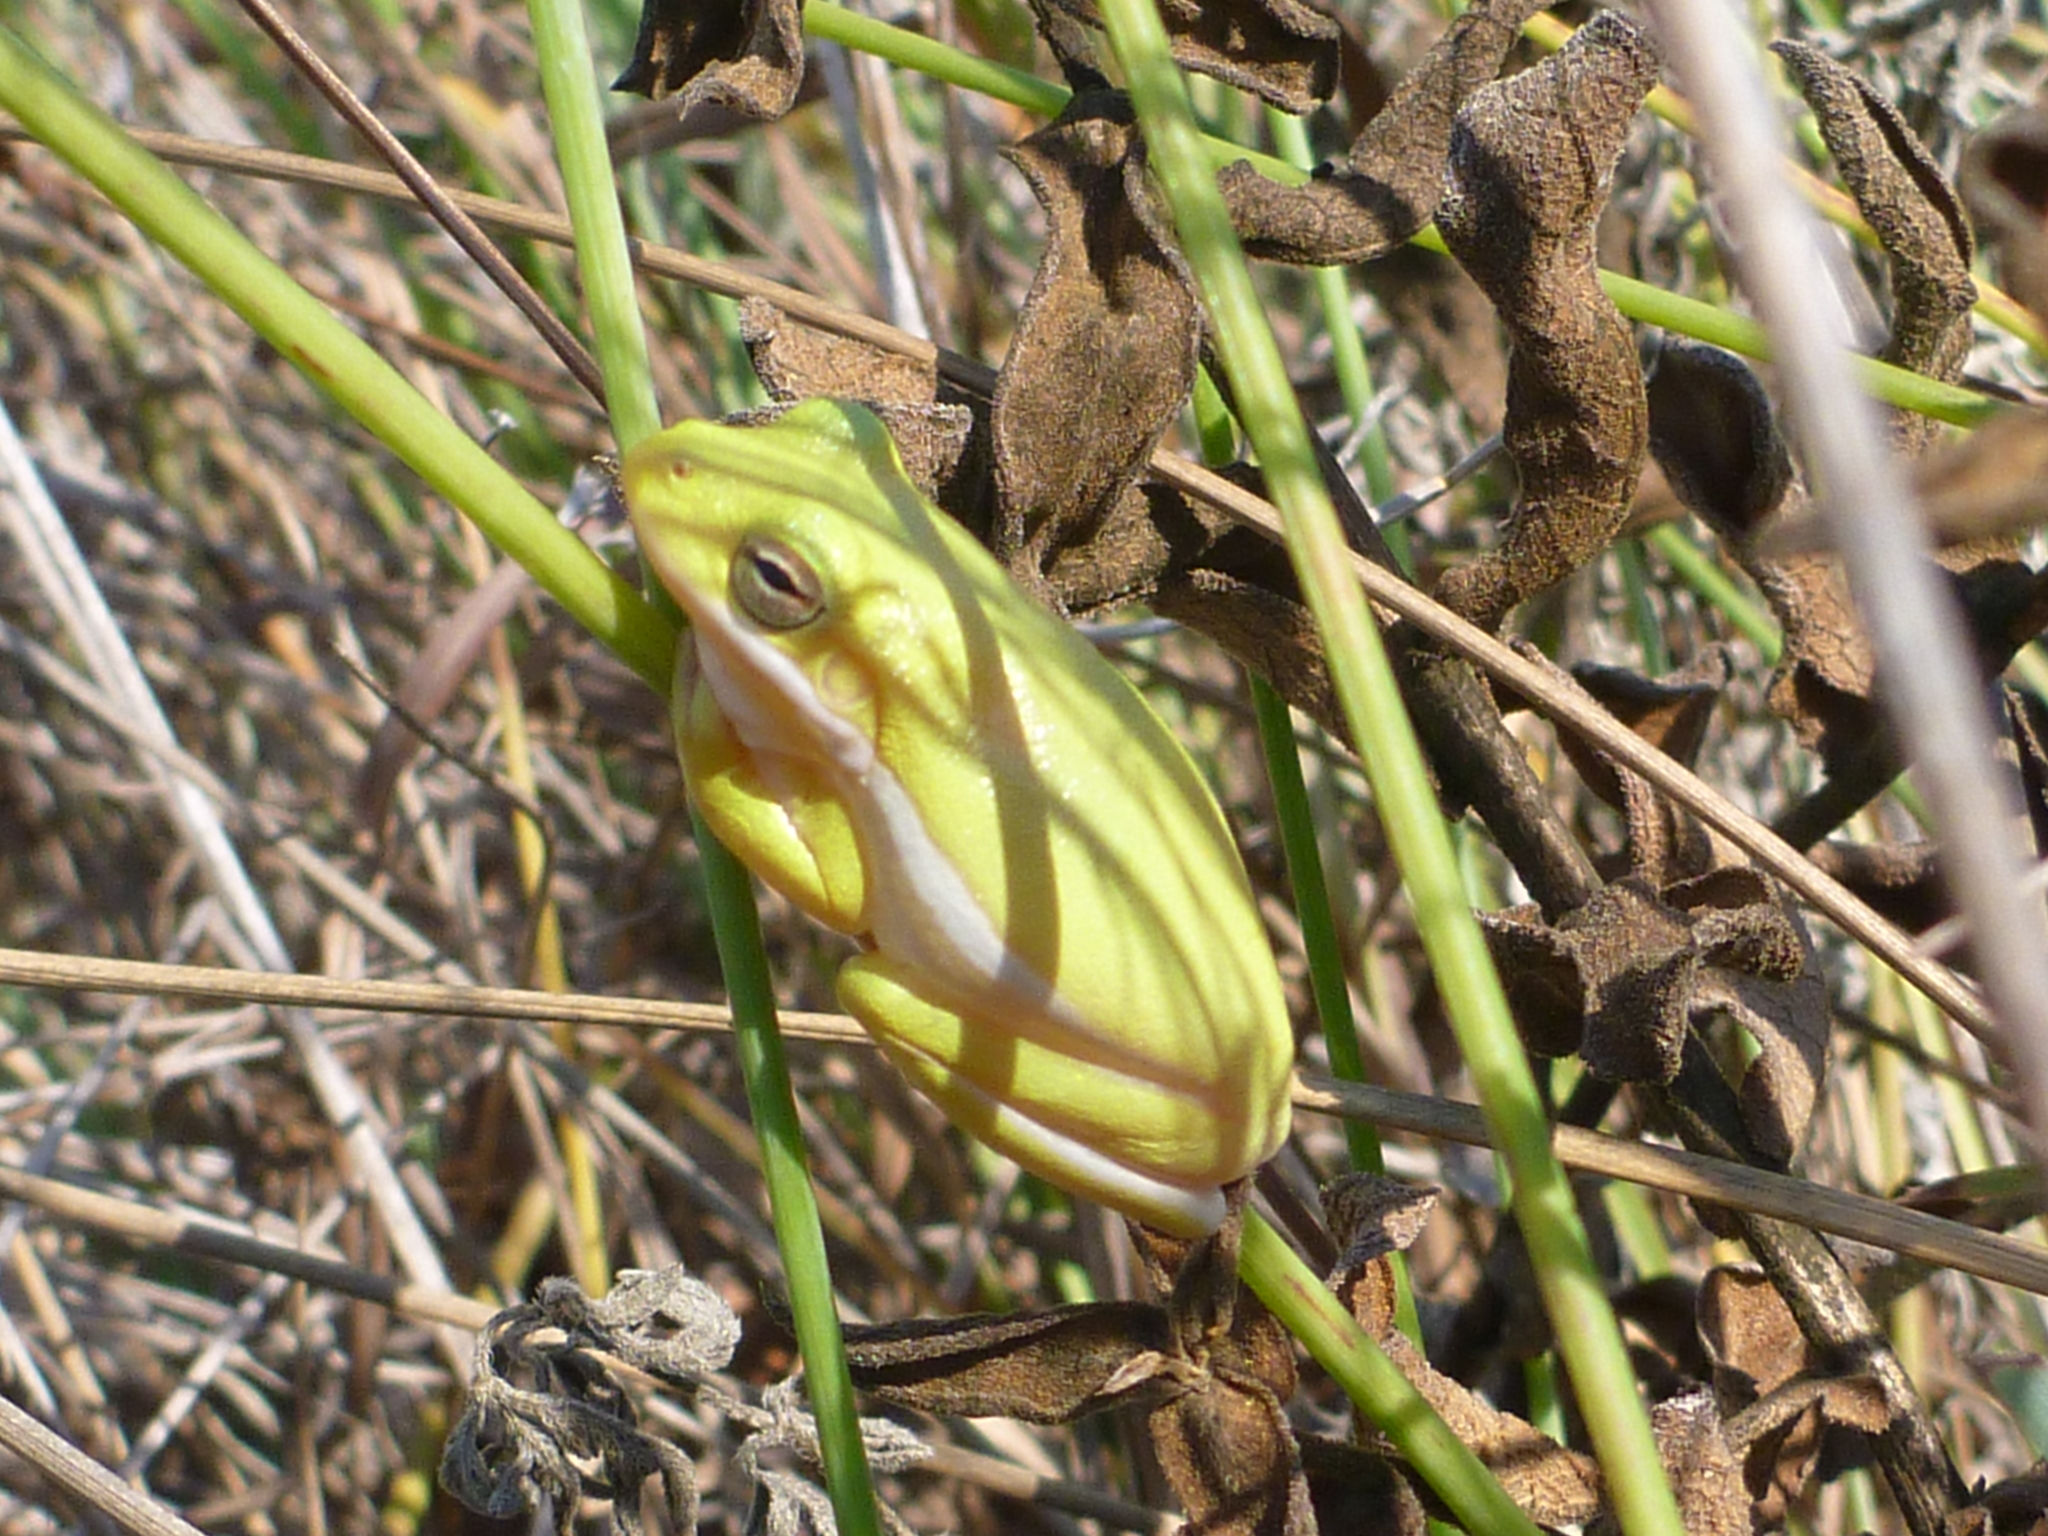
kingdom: Animalia
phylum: Chordata
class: Amphibia
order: Anura
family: Hylidae
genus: Dryophytes
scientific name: Dryophytes cinereus
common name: Green treefrog
